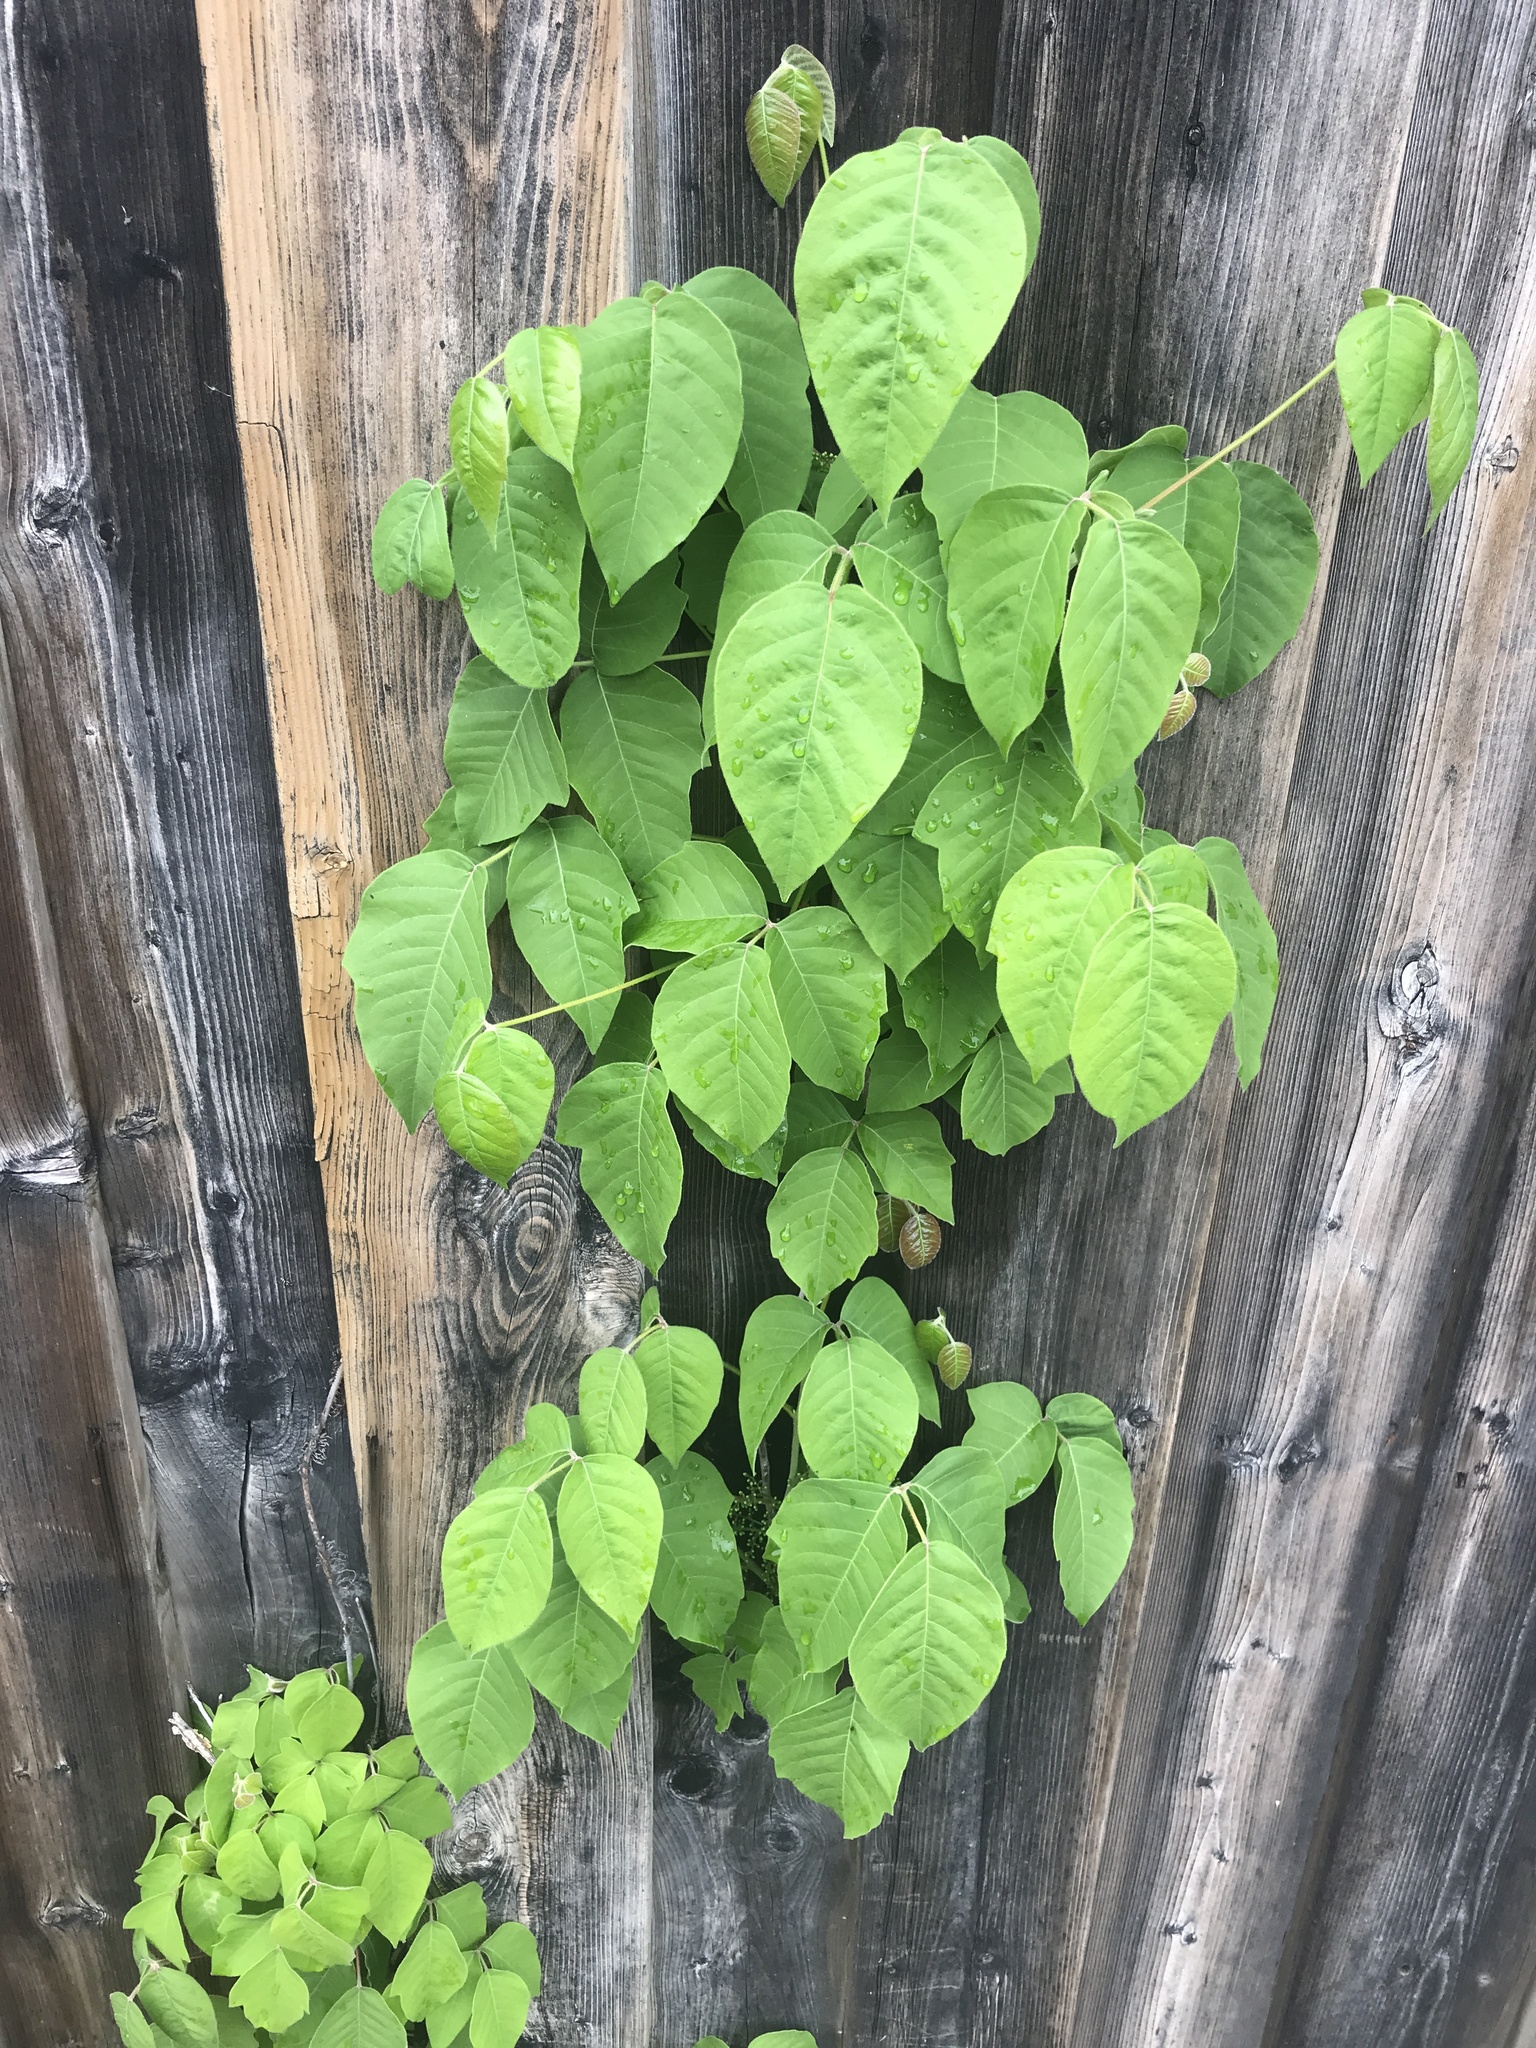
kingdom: Plantae
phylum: Tracheophyta
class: Magnoliopsida
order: Sapindales
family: Anacardiaceae
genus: Toxicodendron
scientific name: Toxicodendron radicans
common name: Poison ivy
